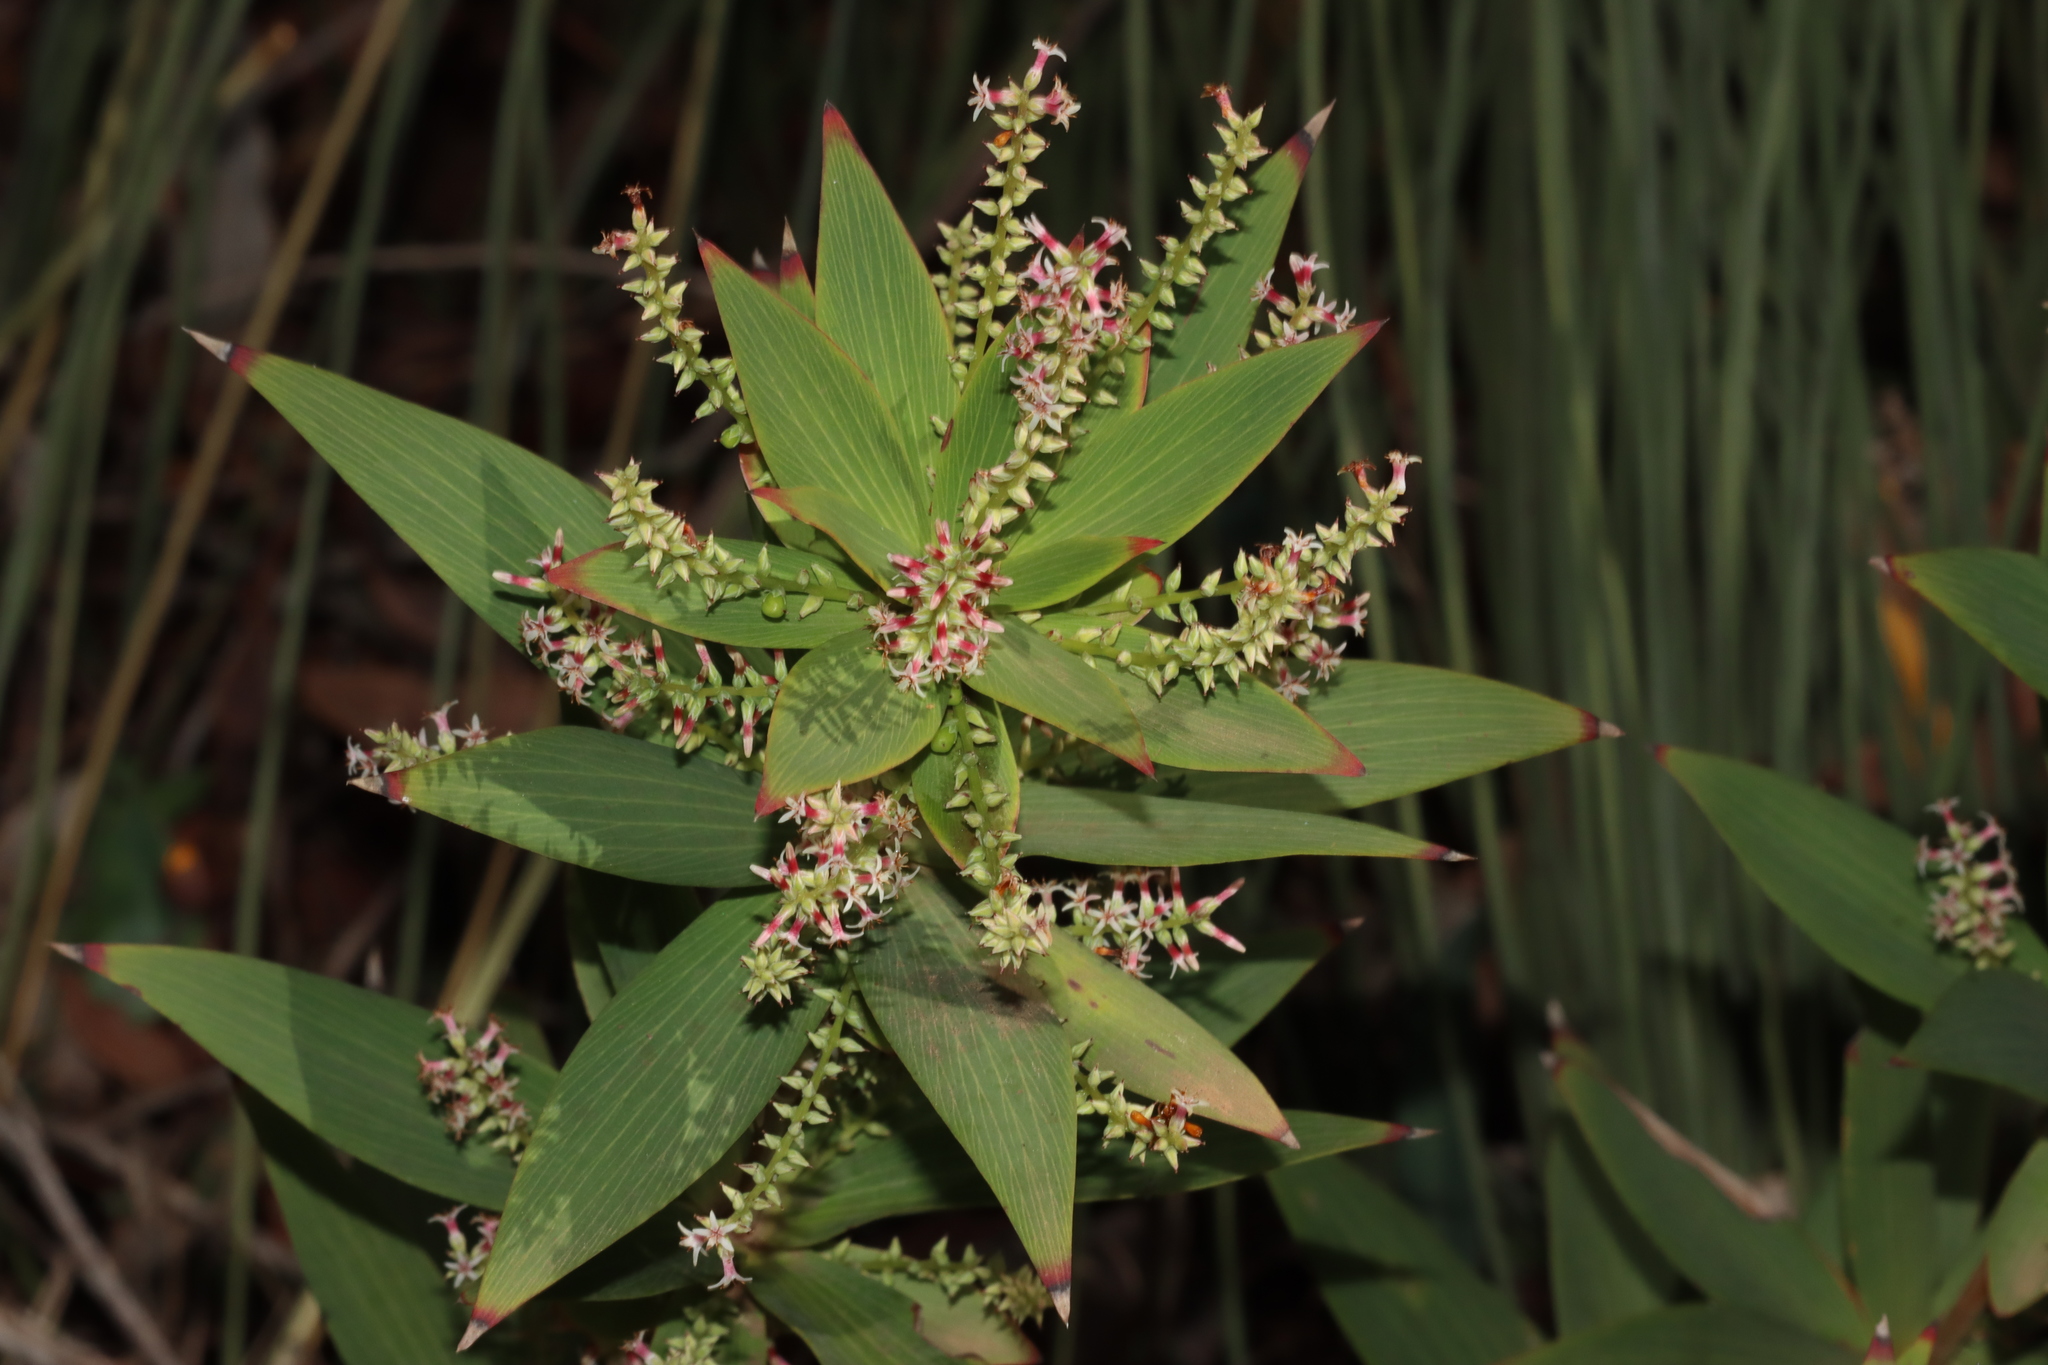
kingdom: Plantae
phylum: Tracheophyta
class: Magnoliopsida
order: Ericales
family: Ericaceae
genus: Leucopogon
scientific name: Leucopogon verticillatus
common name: Tasselshrub
